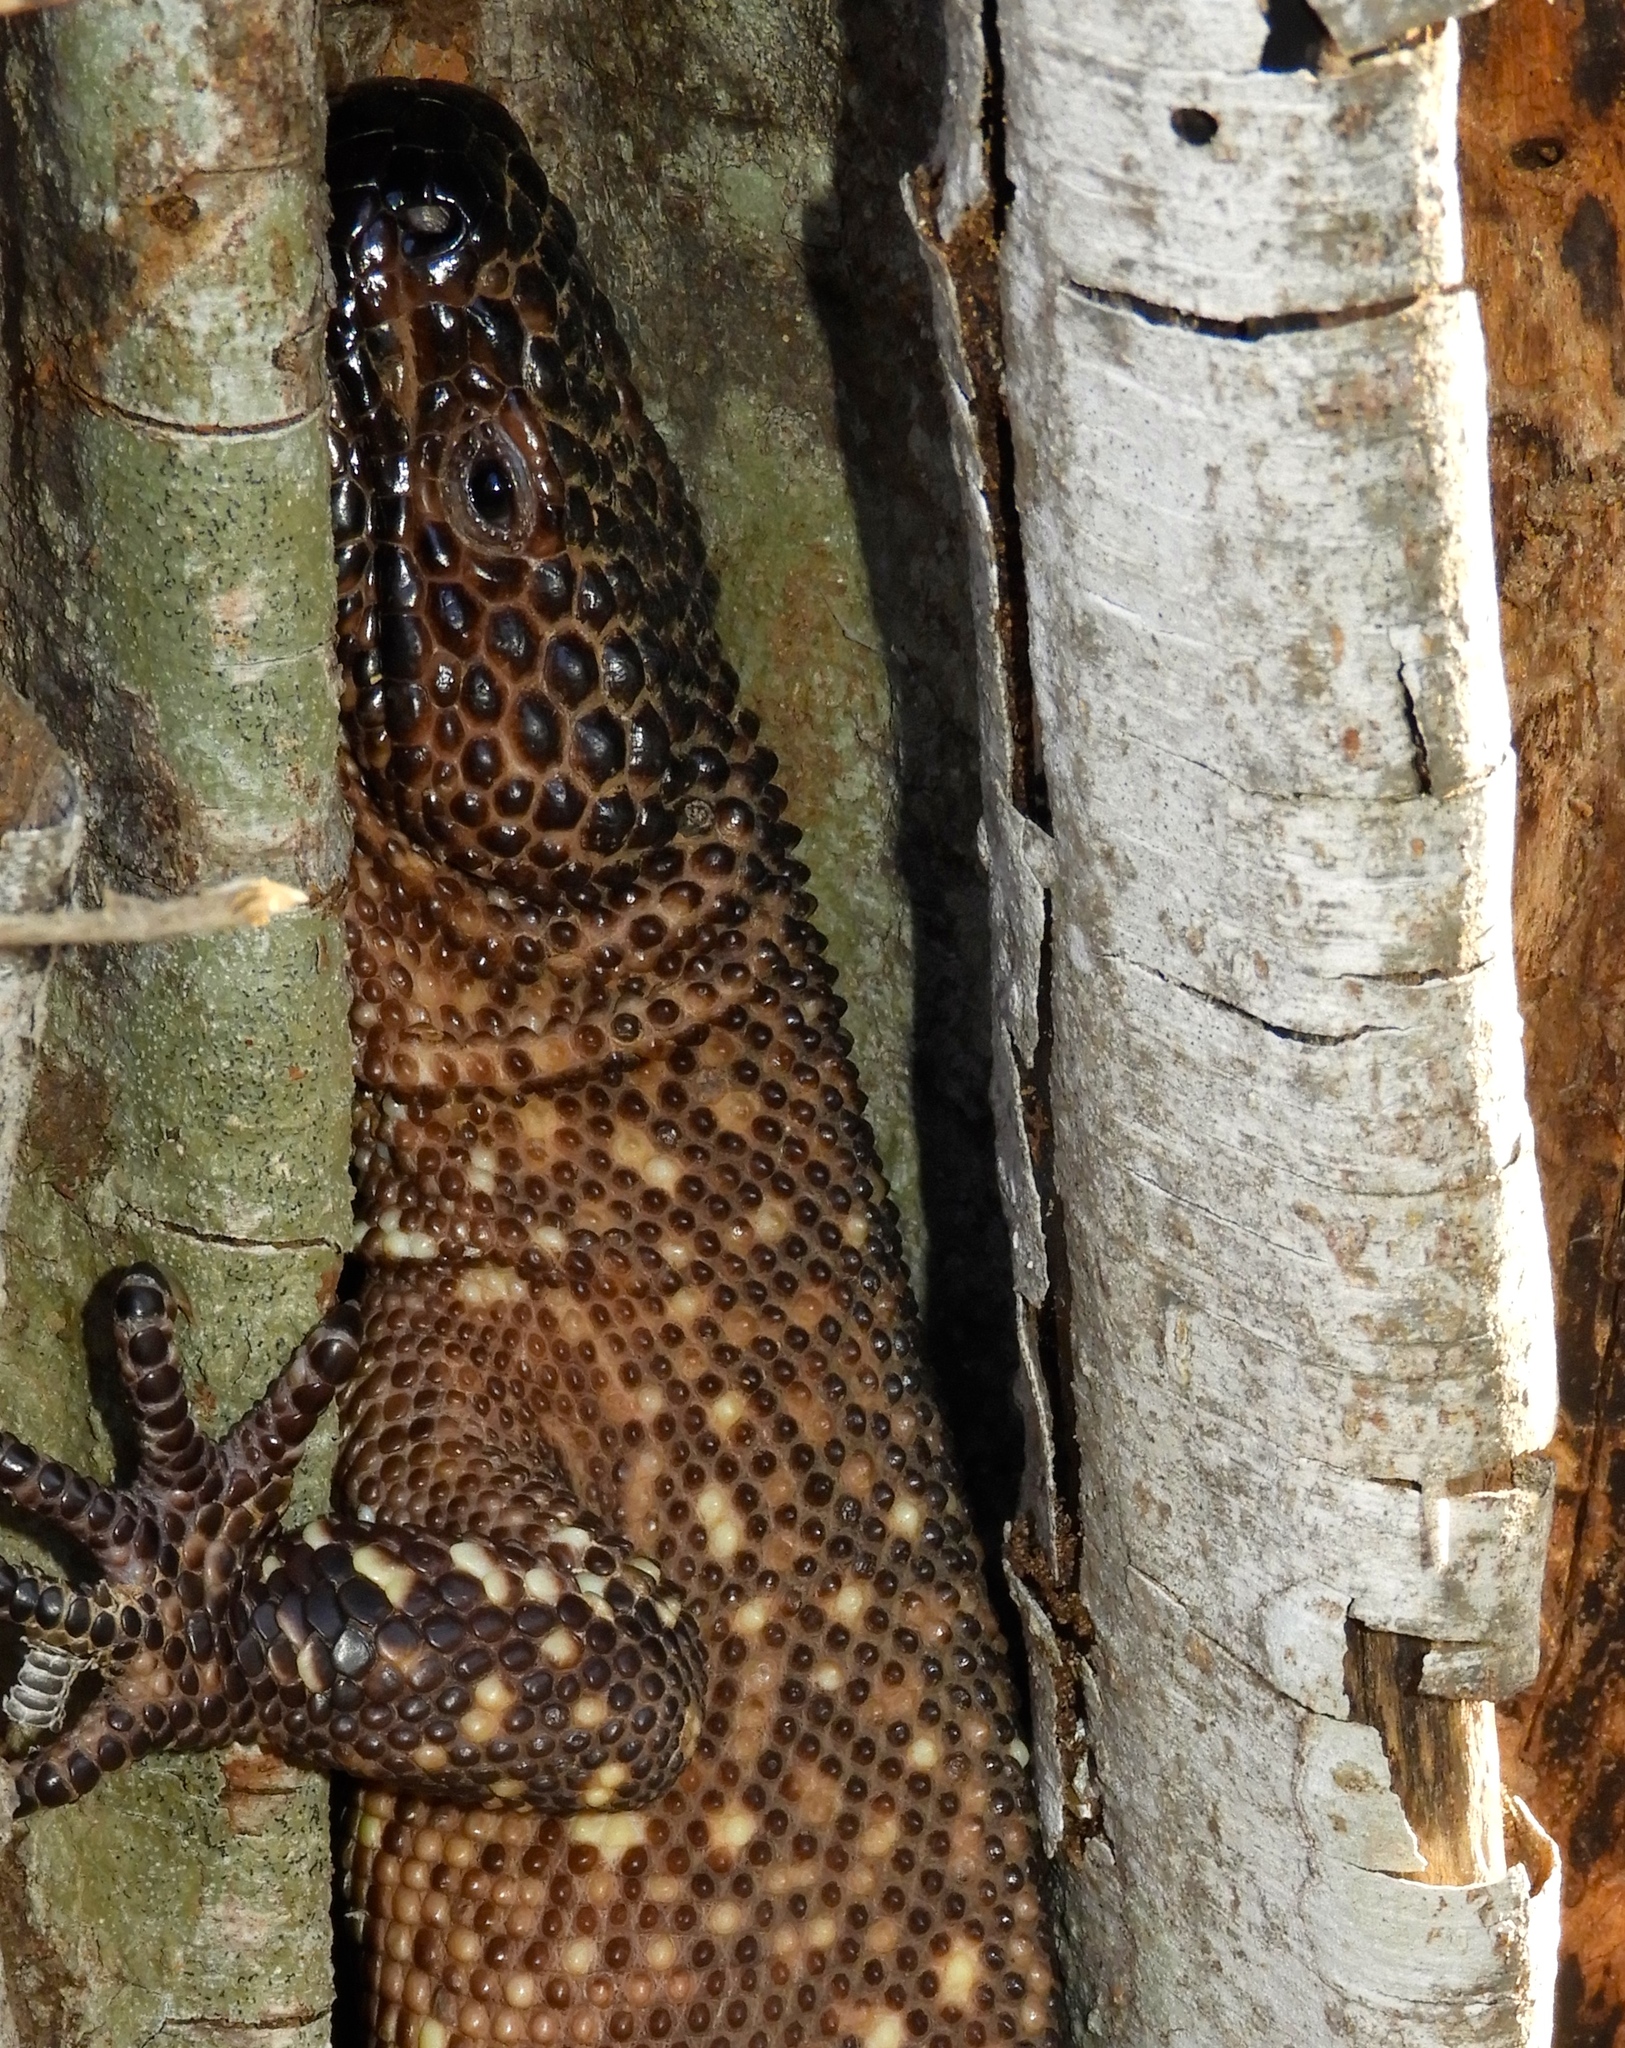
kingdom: Animalia
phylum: Chordata
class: Squamata
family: Helodermatidae
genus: Heloderma
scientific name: Heloderma horridum
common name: Mexican beaded lizard
